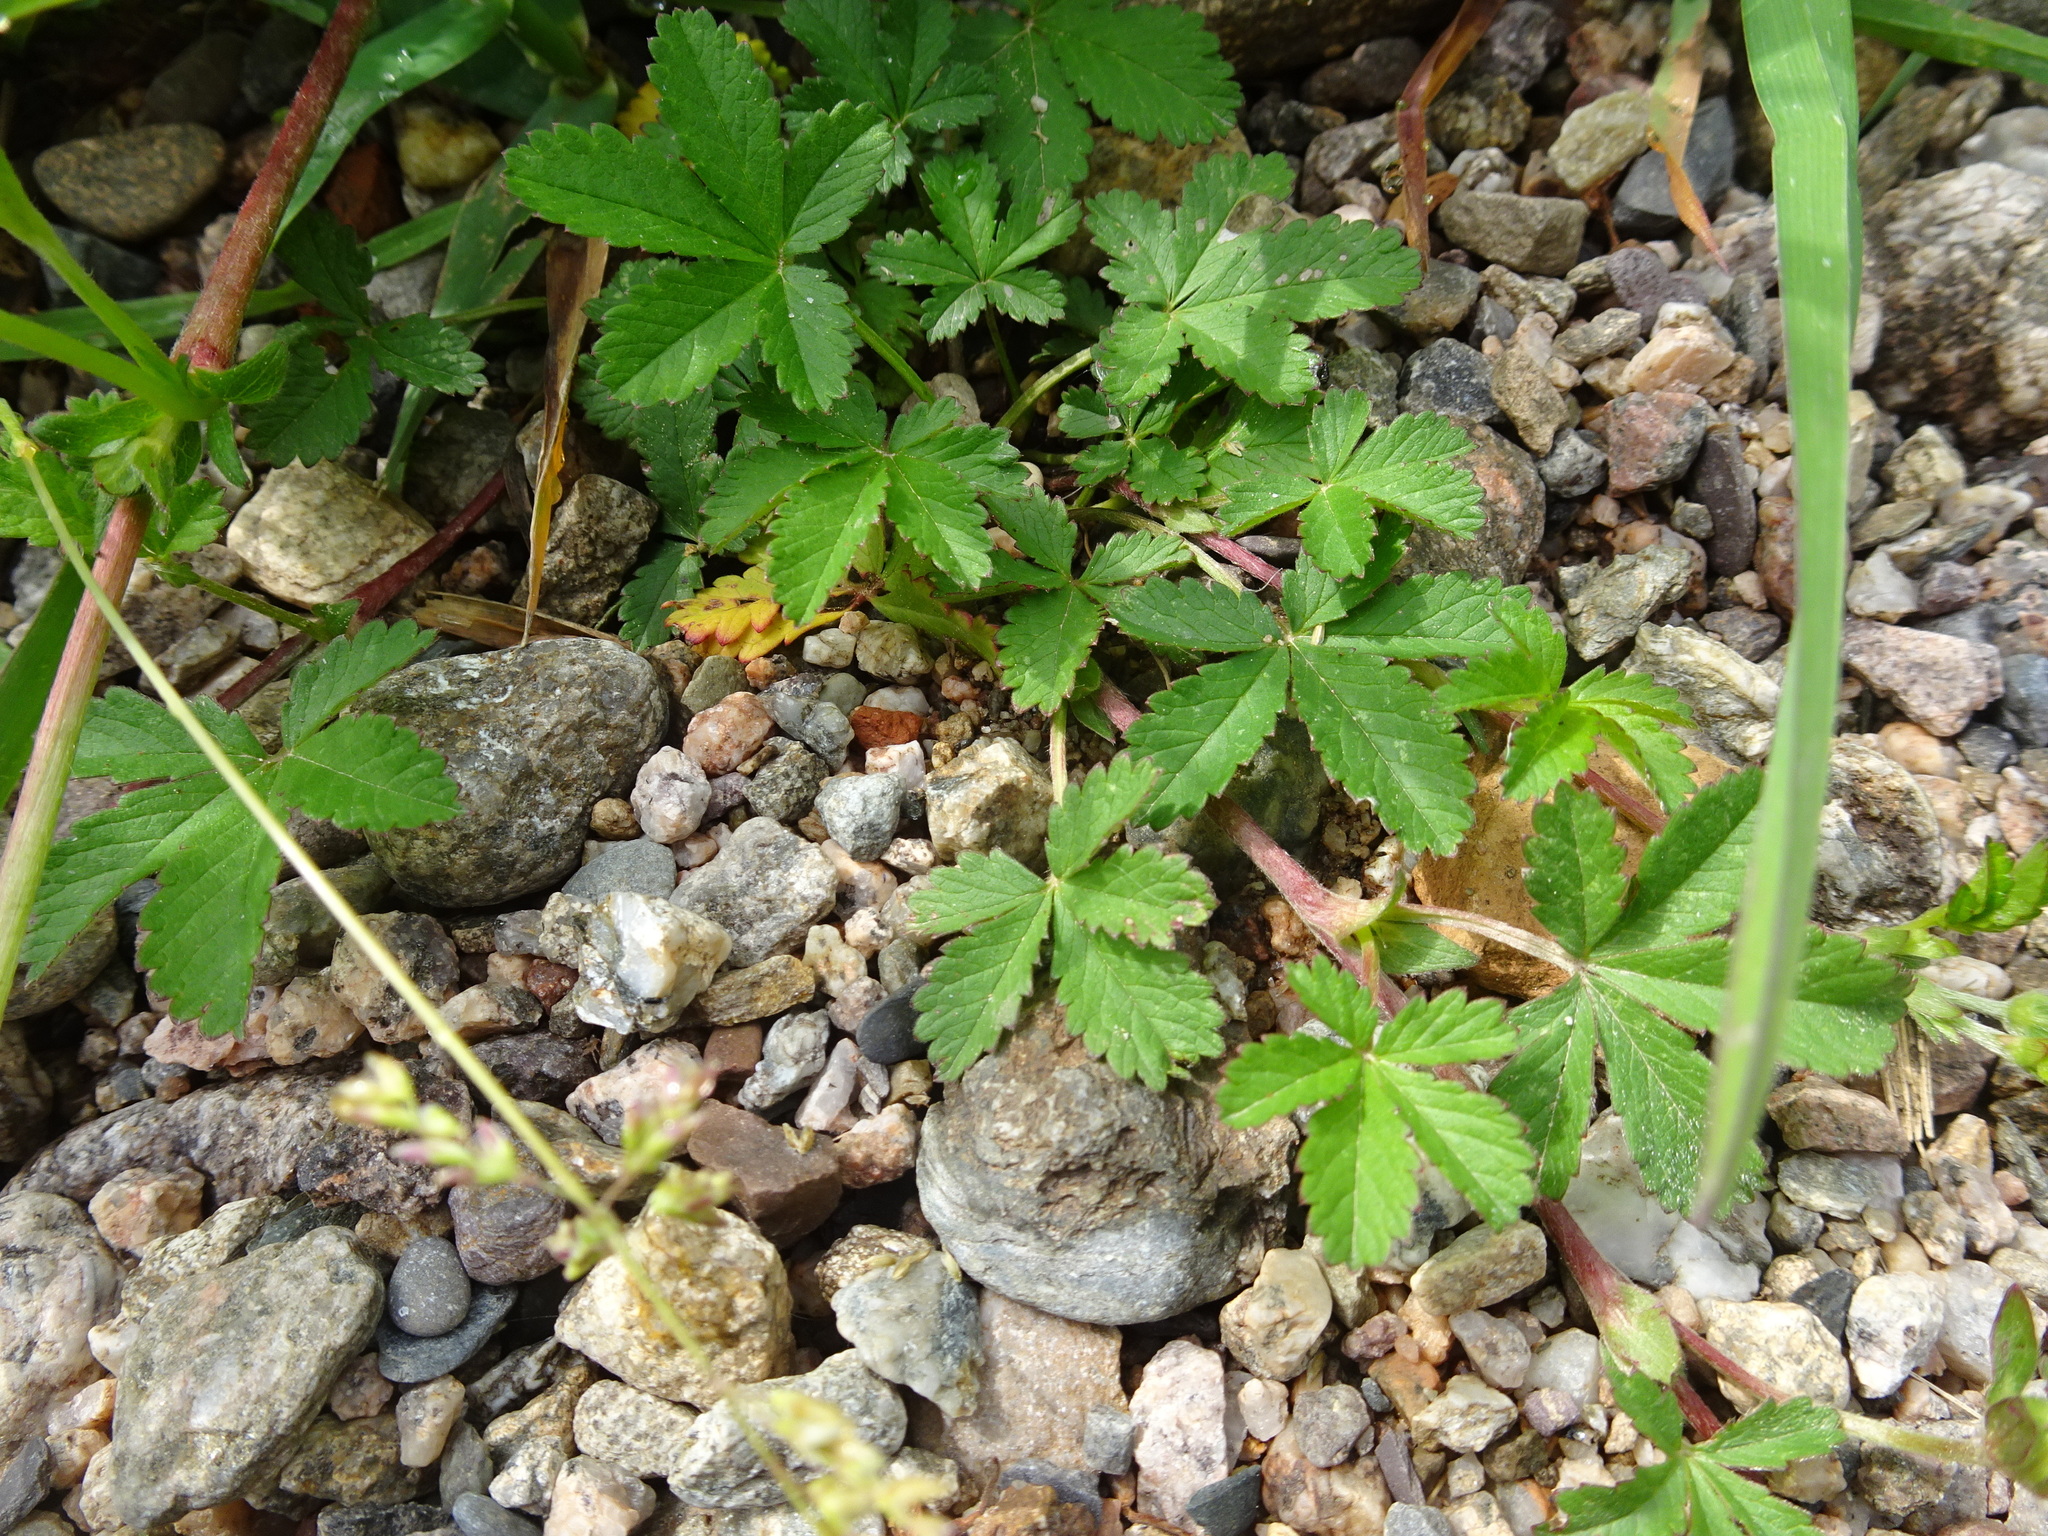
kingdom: Plantae
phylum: Tracheophyta
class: Magnoliopsida
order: Rosales
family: Rosaceae
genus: Potentilla
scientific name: Potentilla reptans
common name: Creeping cinquefoil
